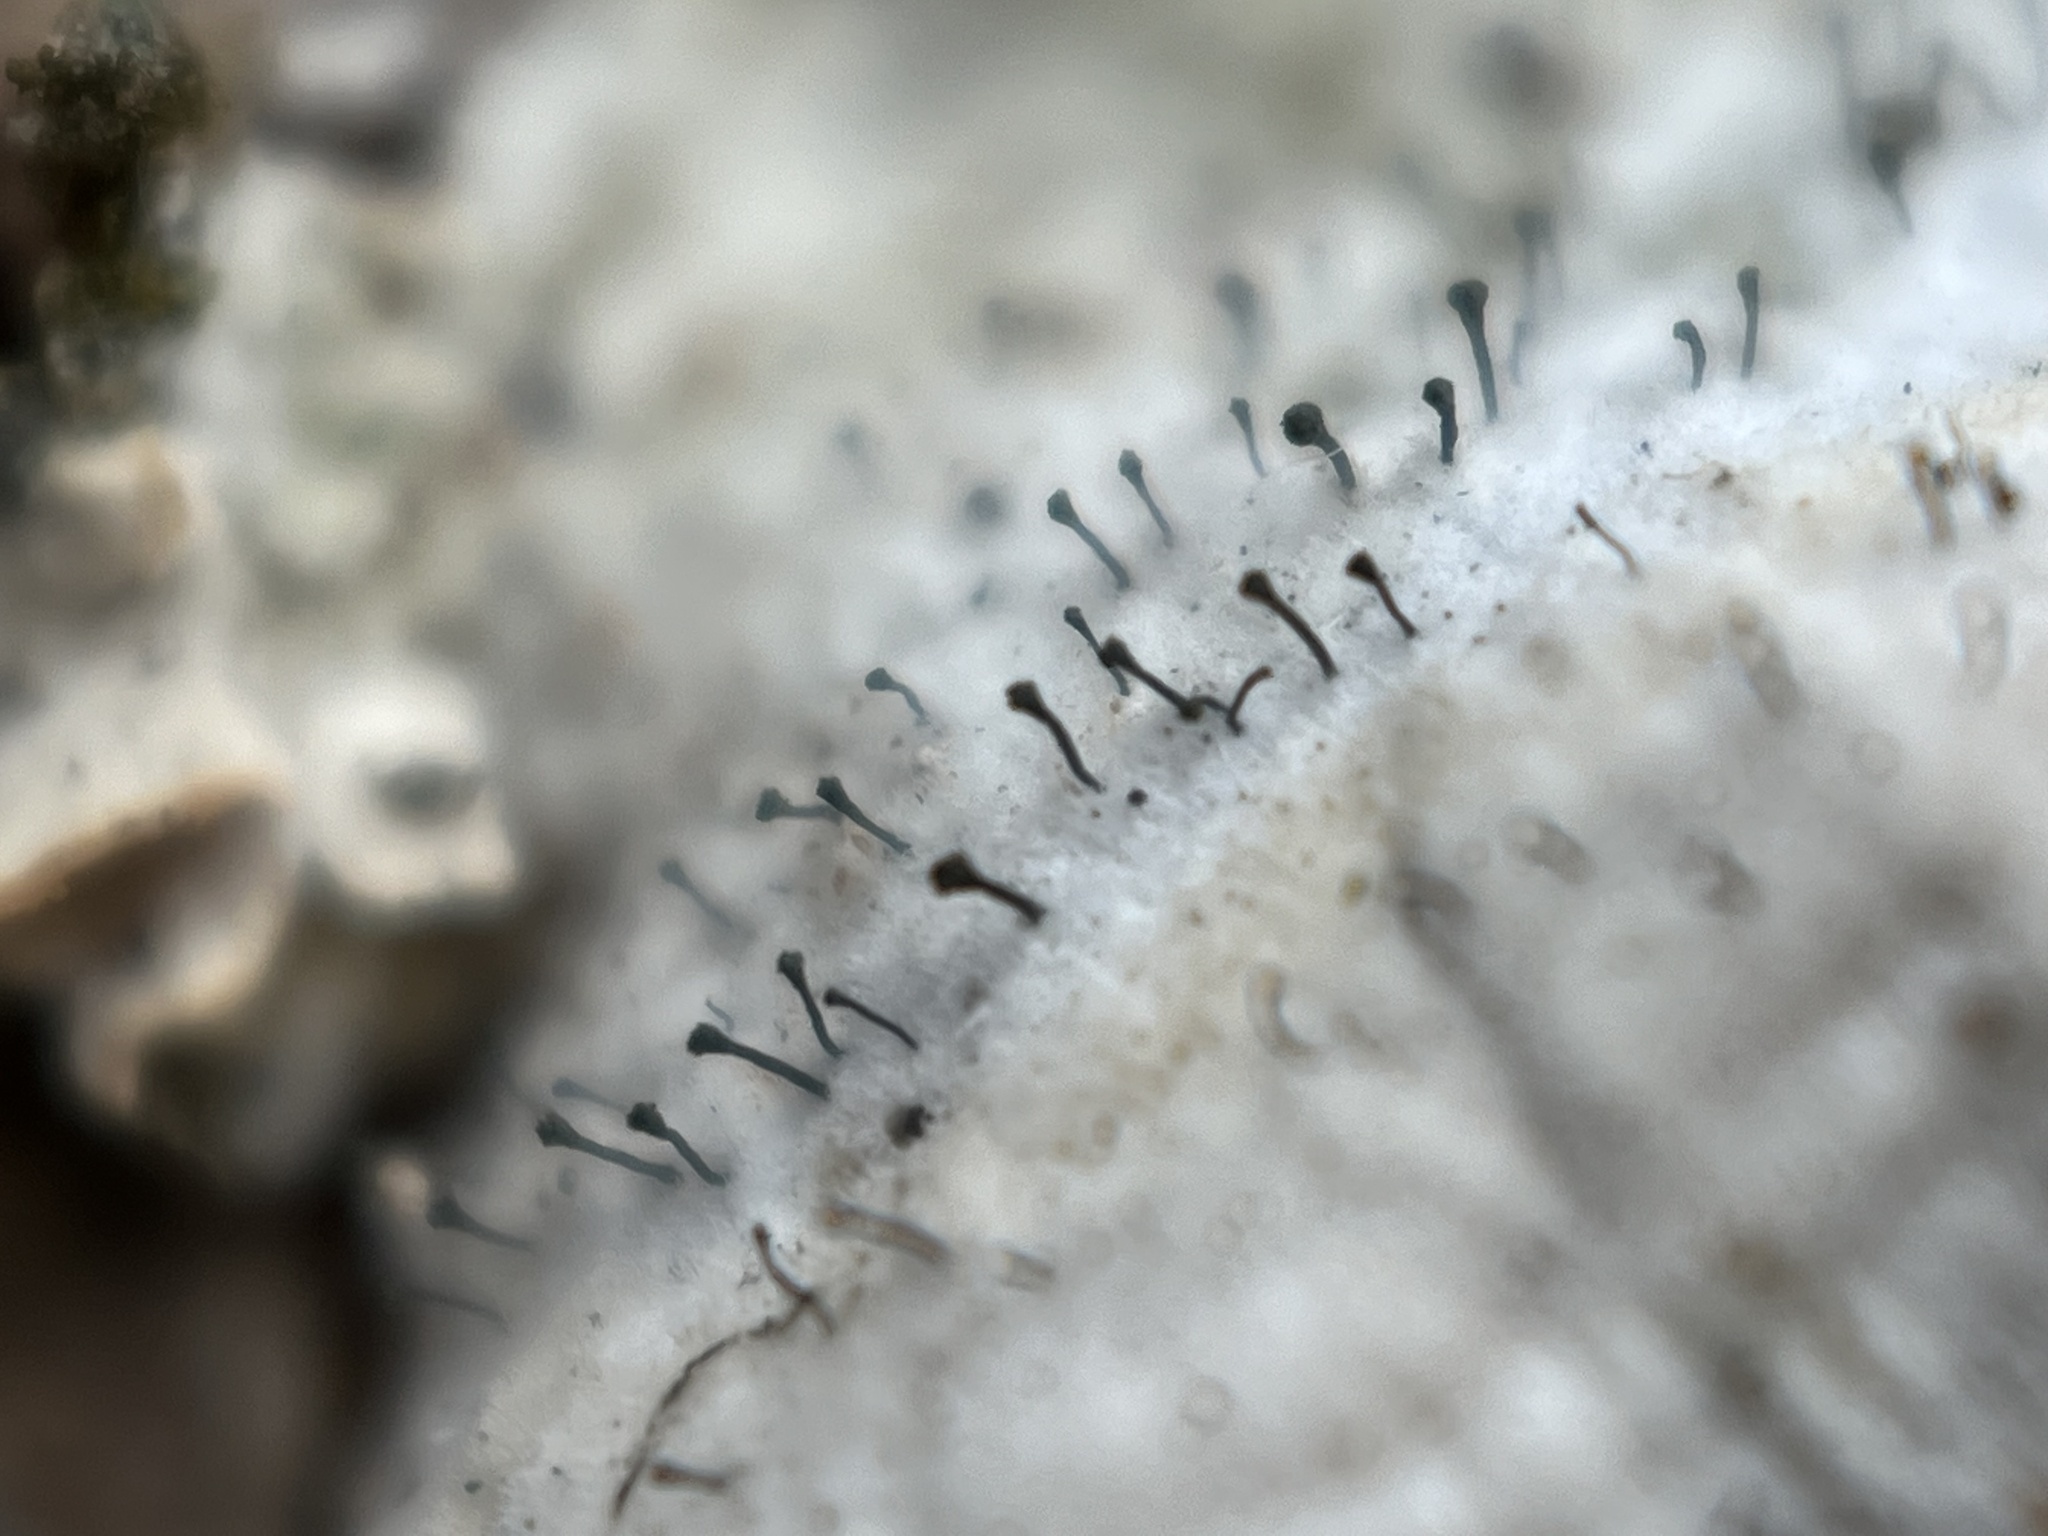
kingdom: Fungi
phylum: Ascomycota
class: Eurotiomycetes
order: Mycocaliciales
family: Mycocaliciaceae
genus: Phaeocalicium
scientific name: Phaeocalicium polyporaeum
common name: Fairy pins
